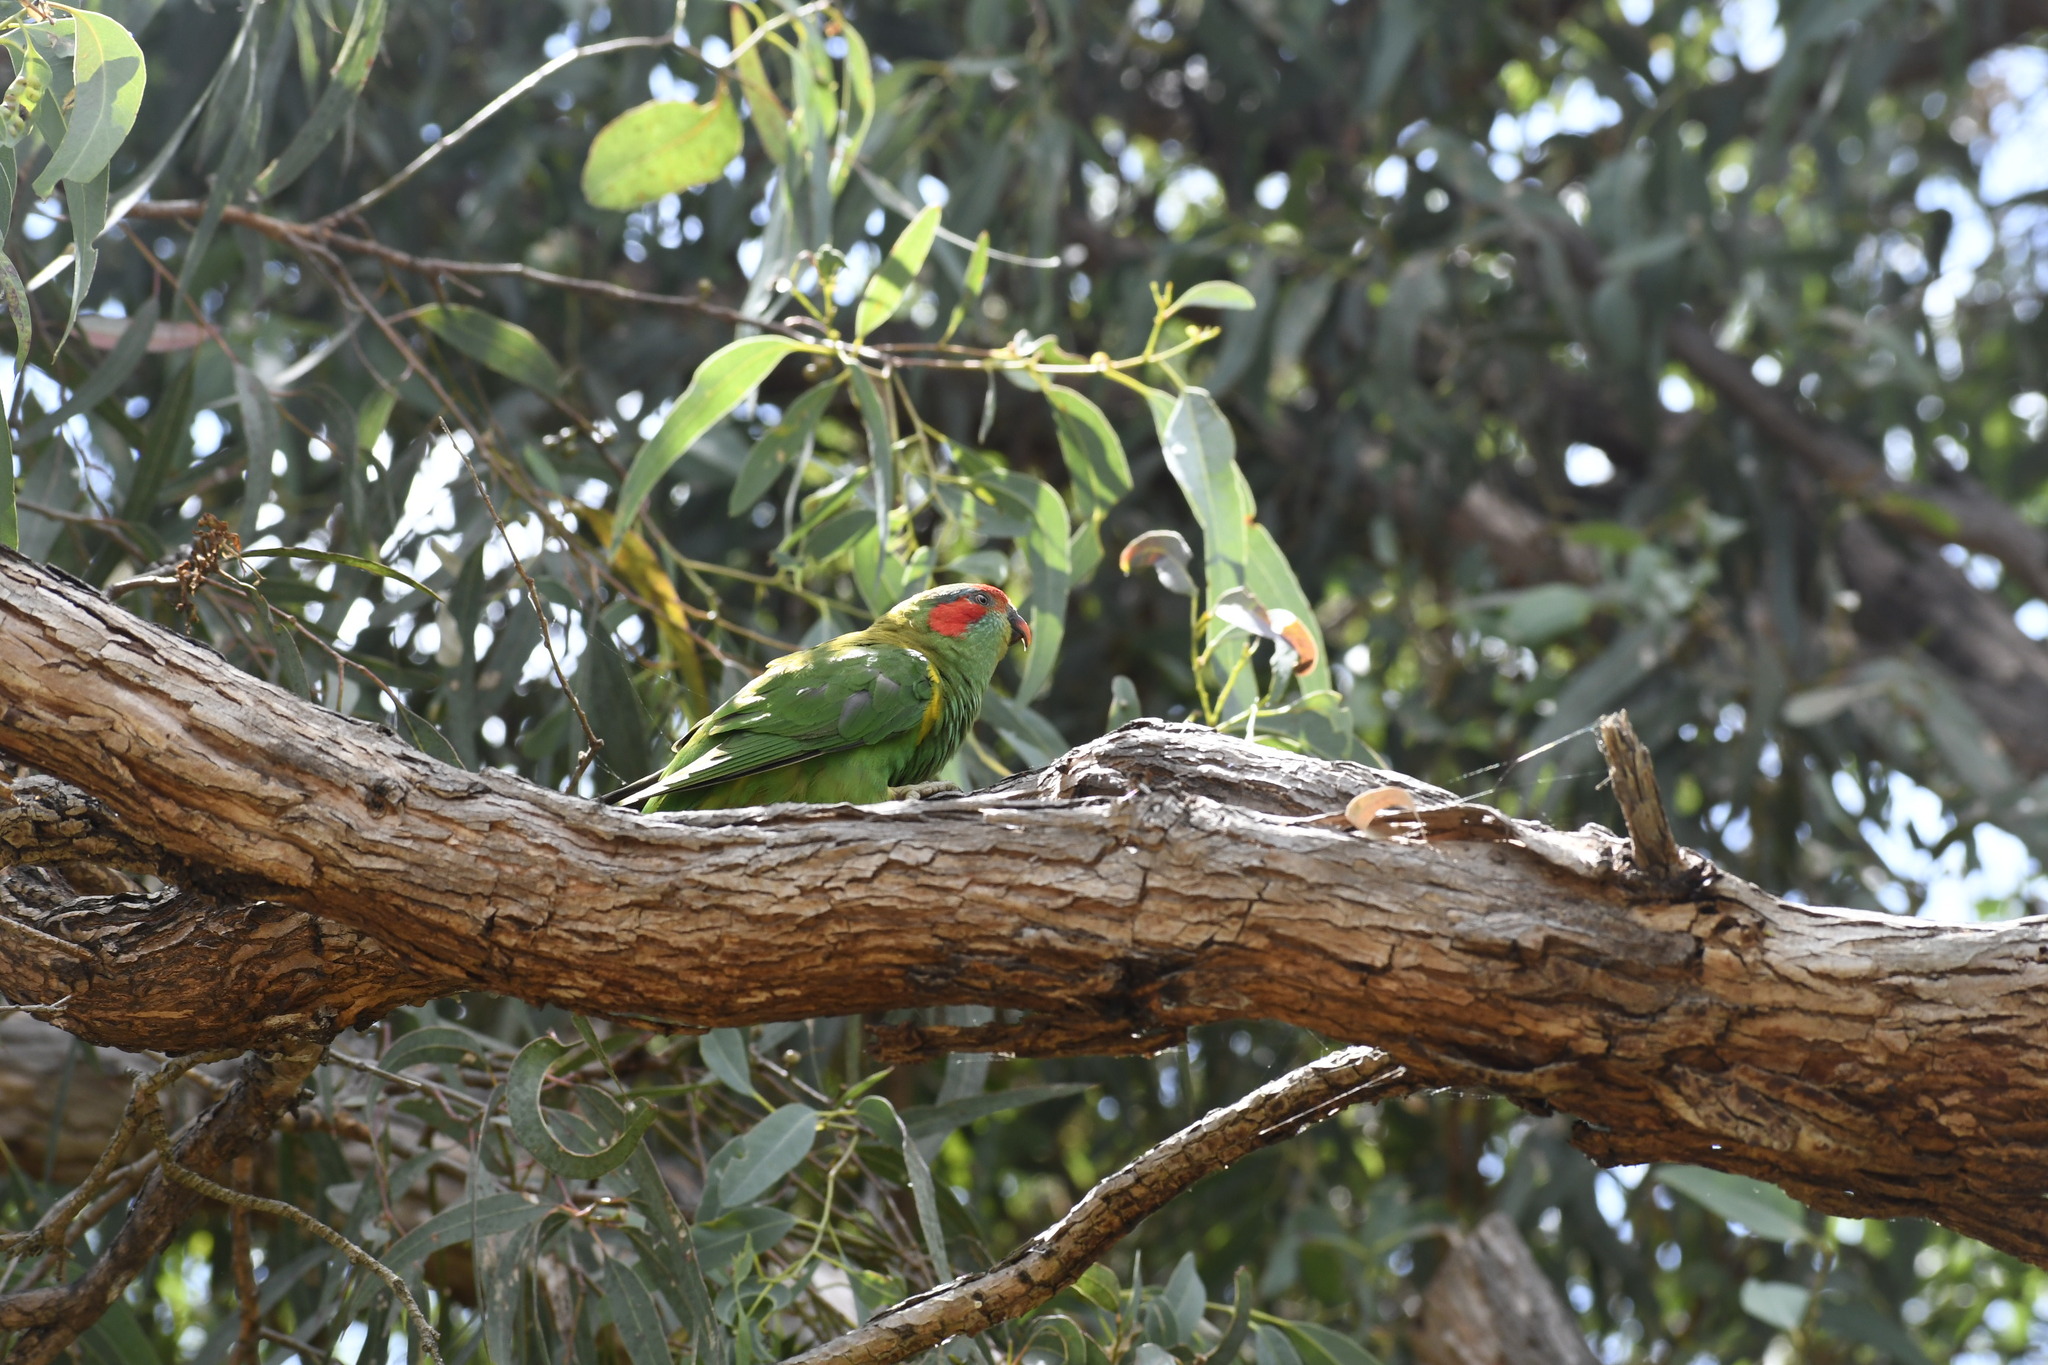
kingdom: Animalia
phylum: Chordata
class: Aves
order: Psittaciformes
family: Psittacidae
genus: Glossopsitta
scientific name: Glossopsitta concinna
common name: Musk lorikeet
